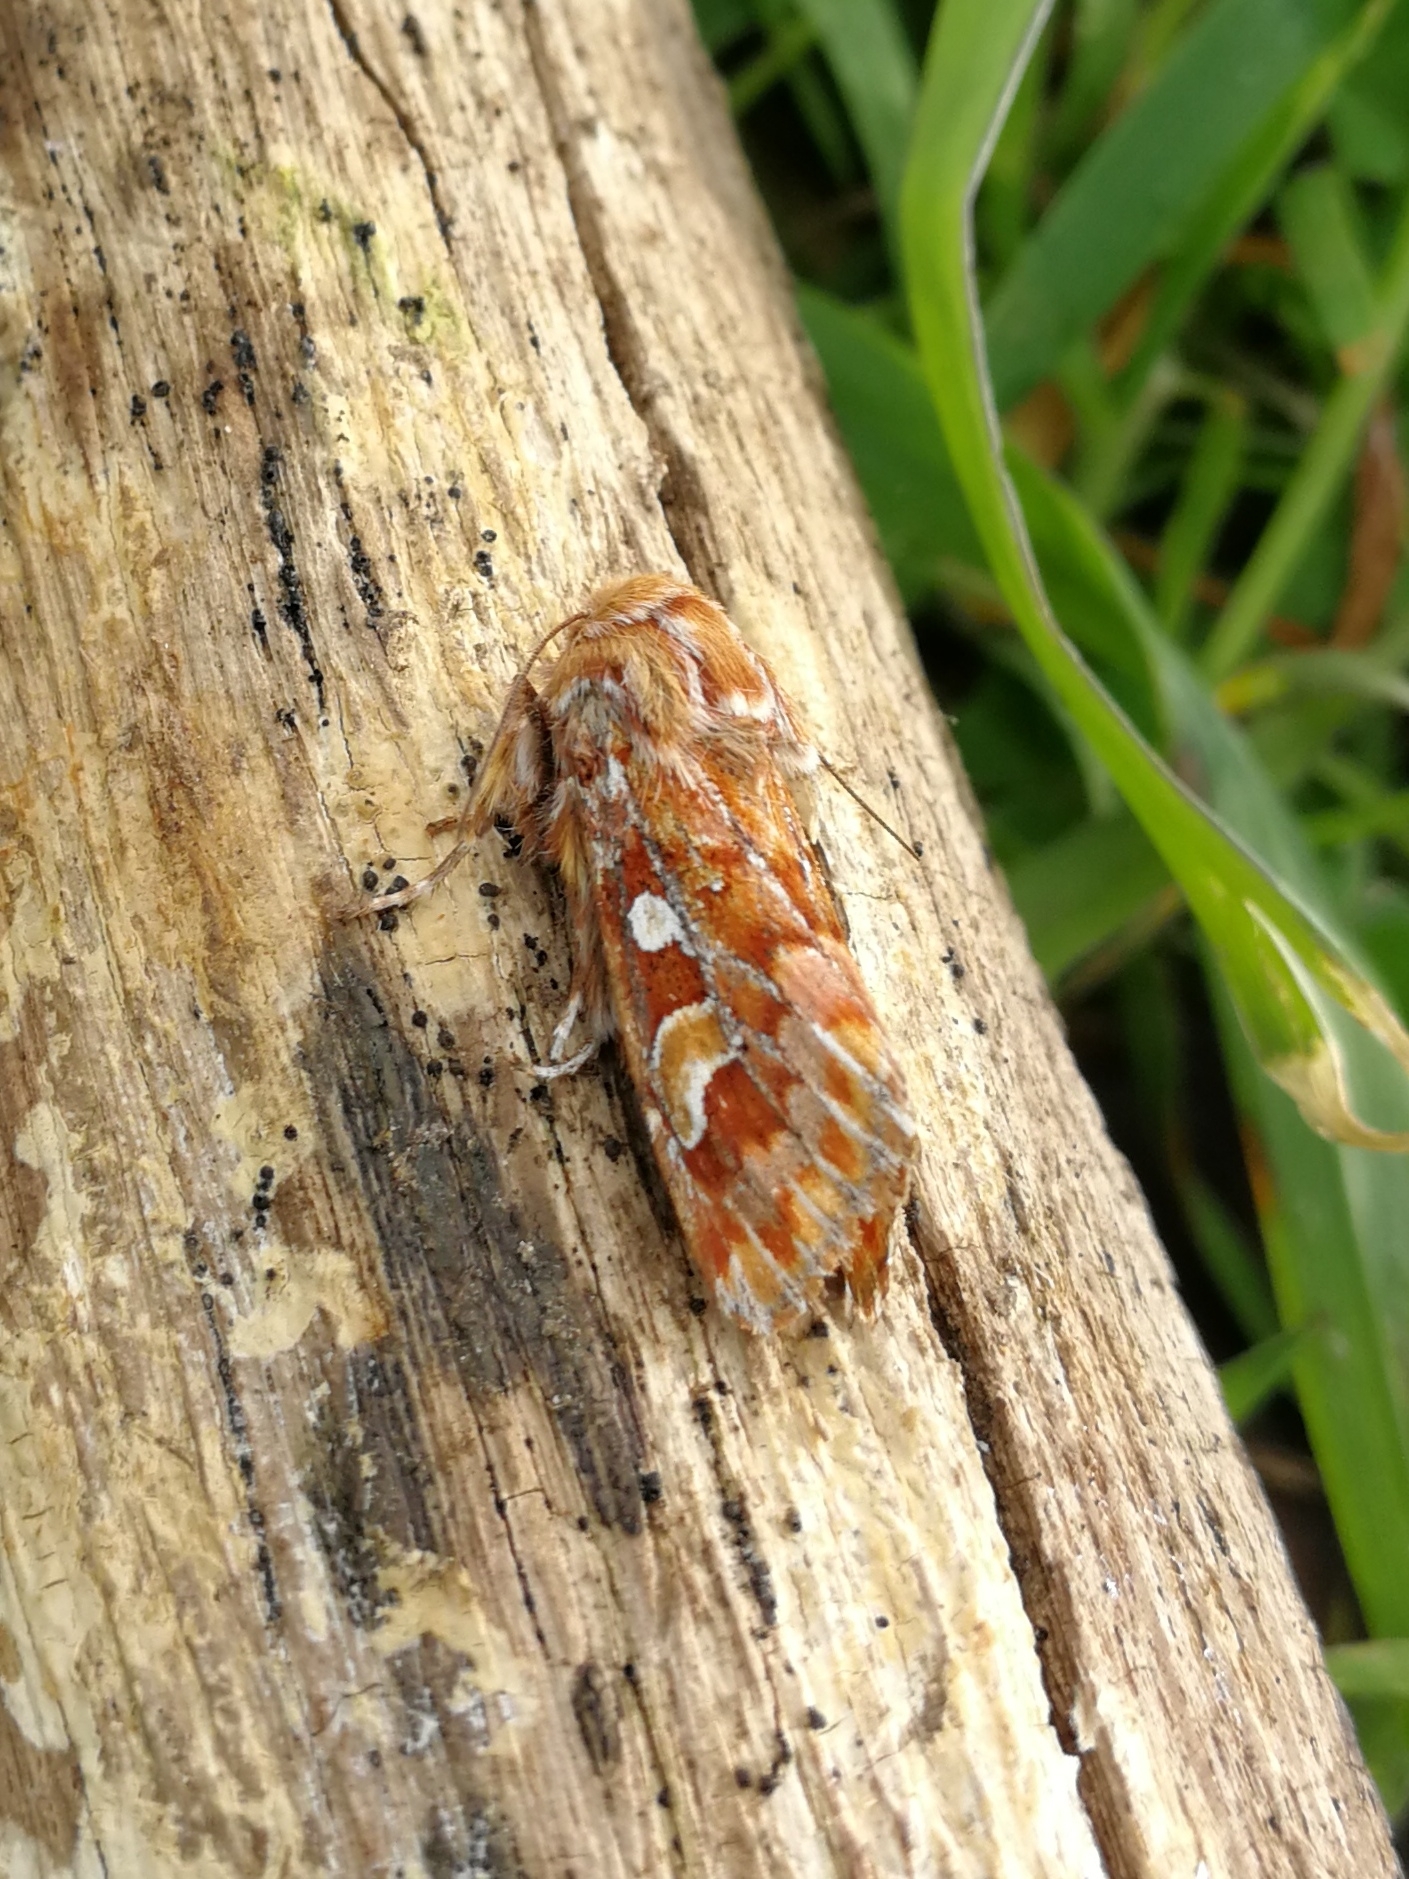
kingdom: Animalia
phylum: Arthropoda
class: Insecta
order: Lepidoptera
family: Noctuidae
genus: Panolis
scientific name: Panolis flammea
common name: Pine beauty
